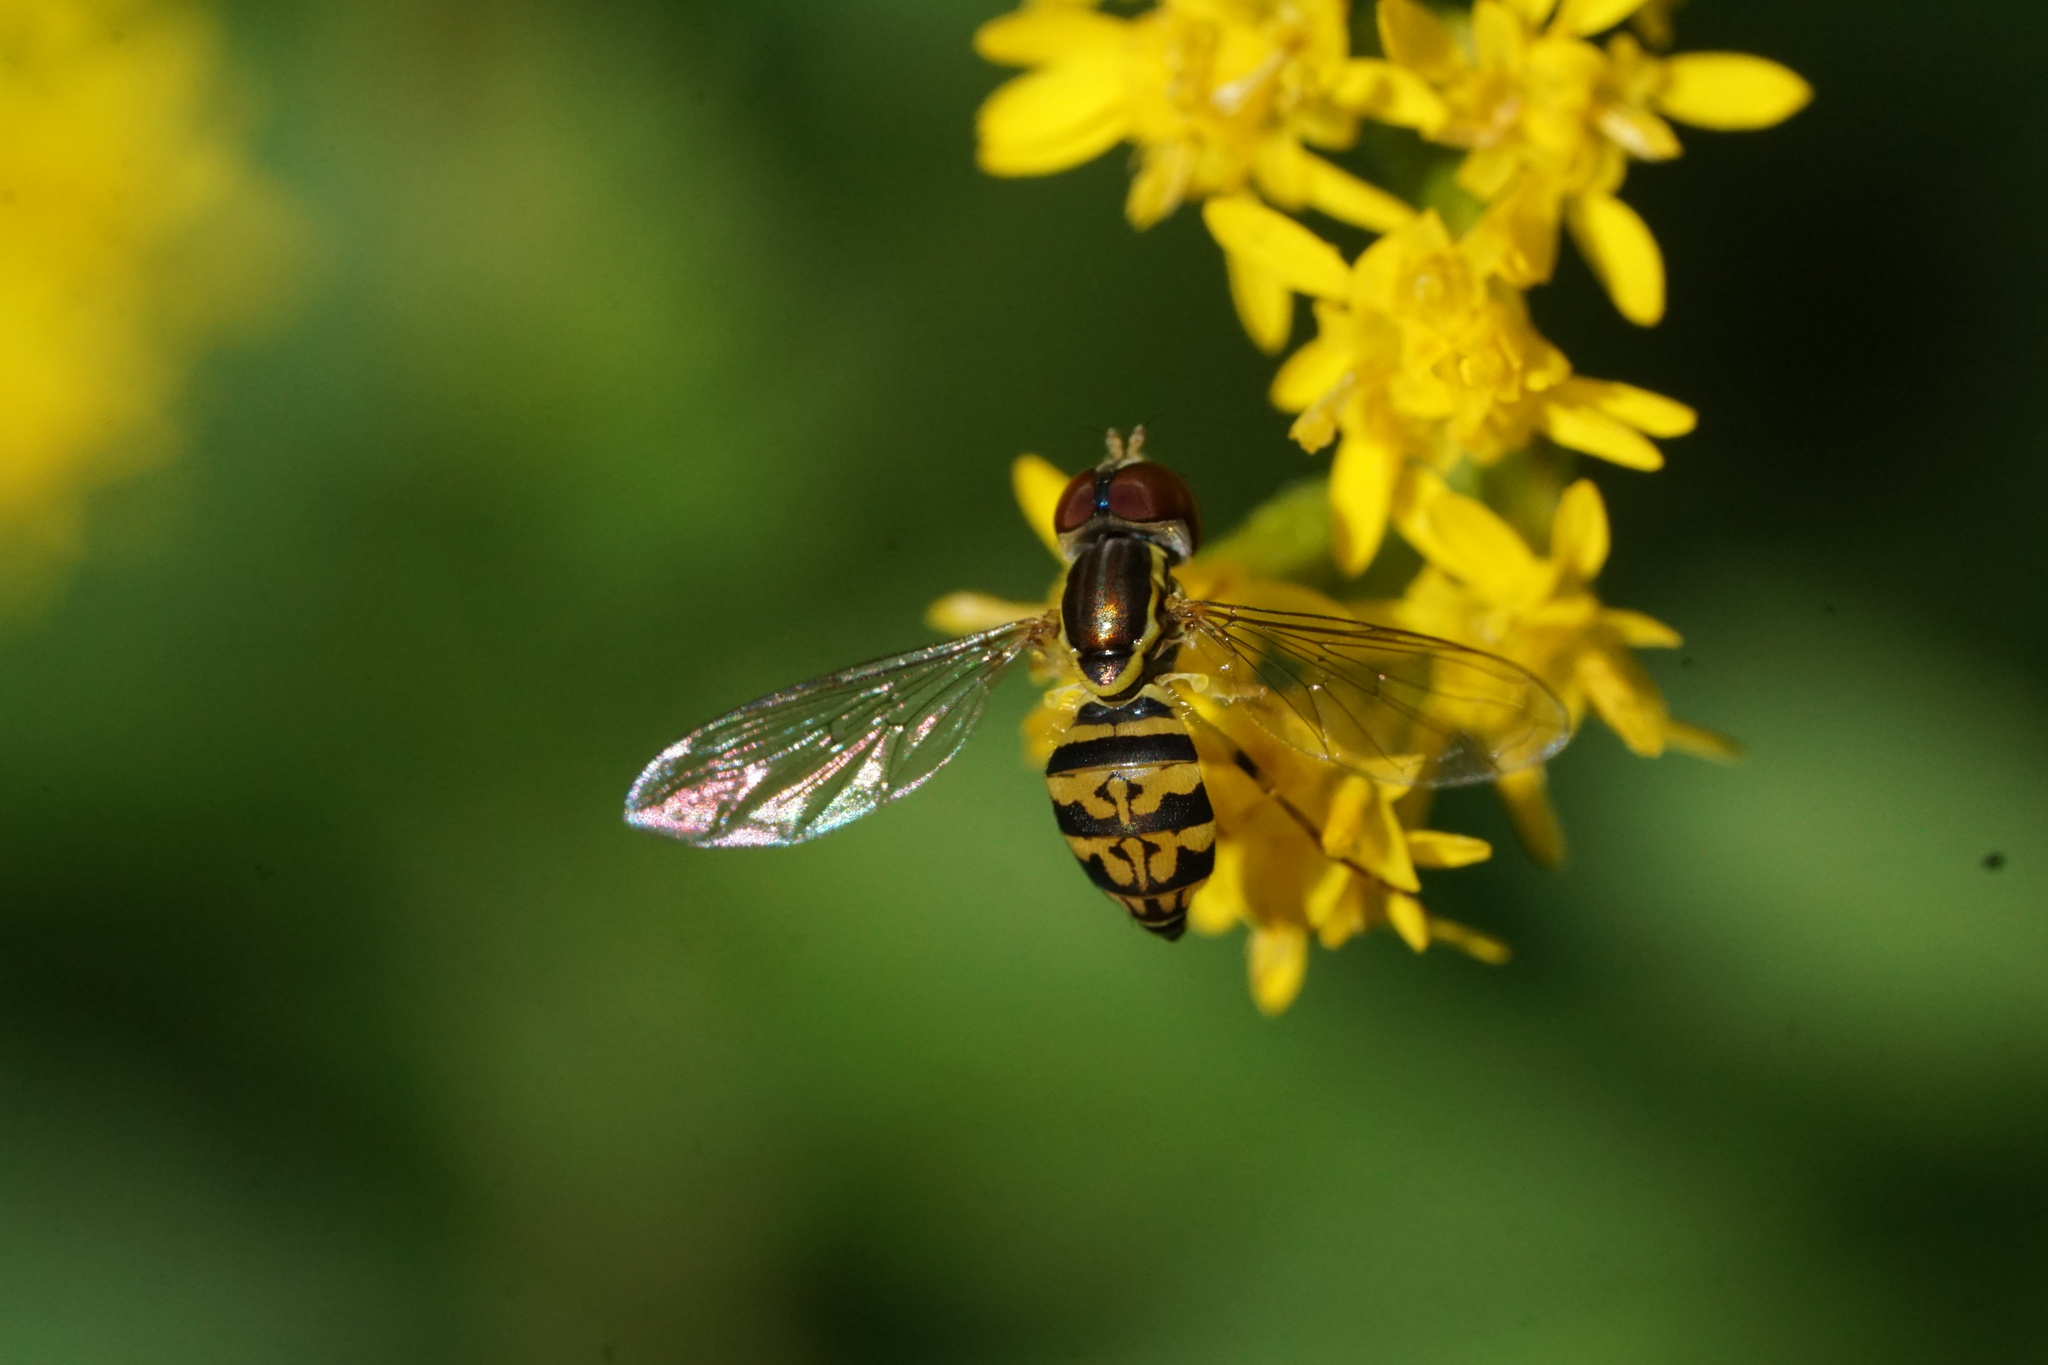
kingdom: Animalia
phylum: Arthropoda
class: Insecta
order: Diptera
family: Syrphidae
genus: Toxomerus
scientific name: Toxomerus geminatus
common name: Eastern calligrapher
